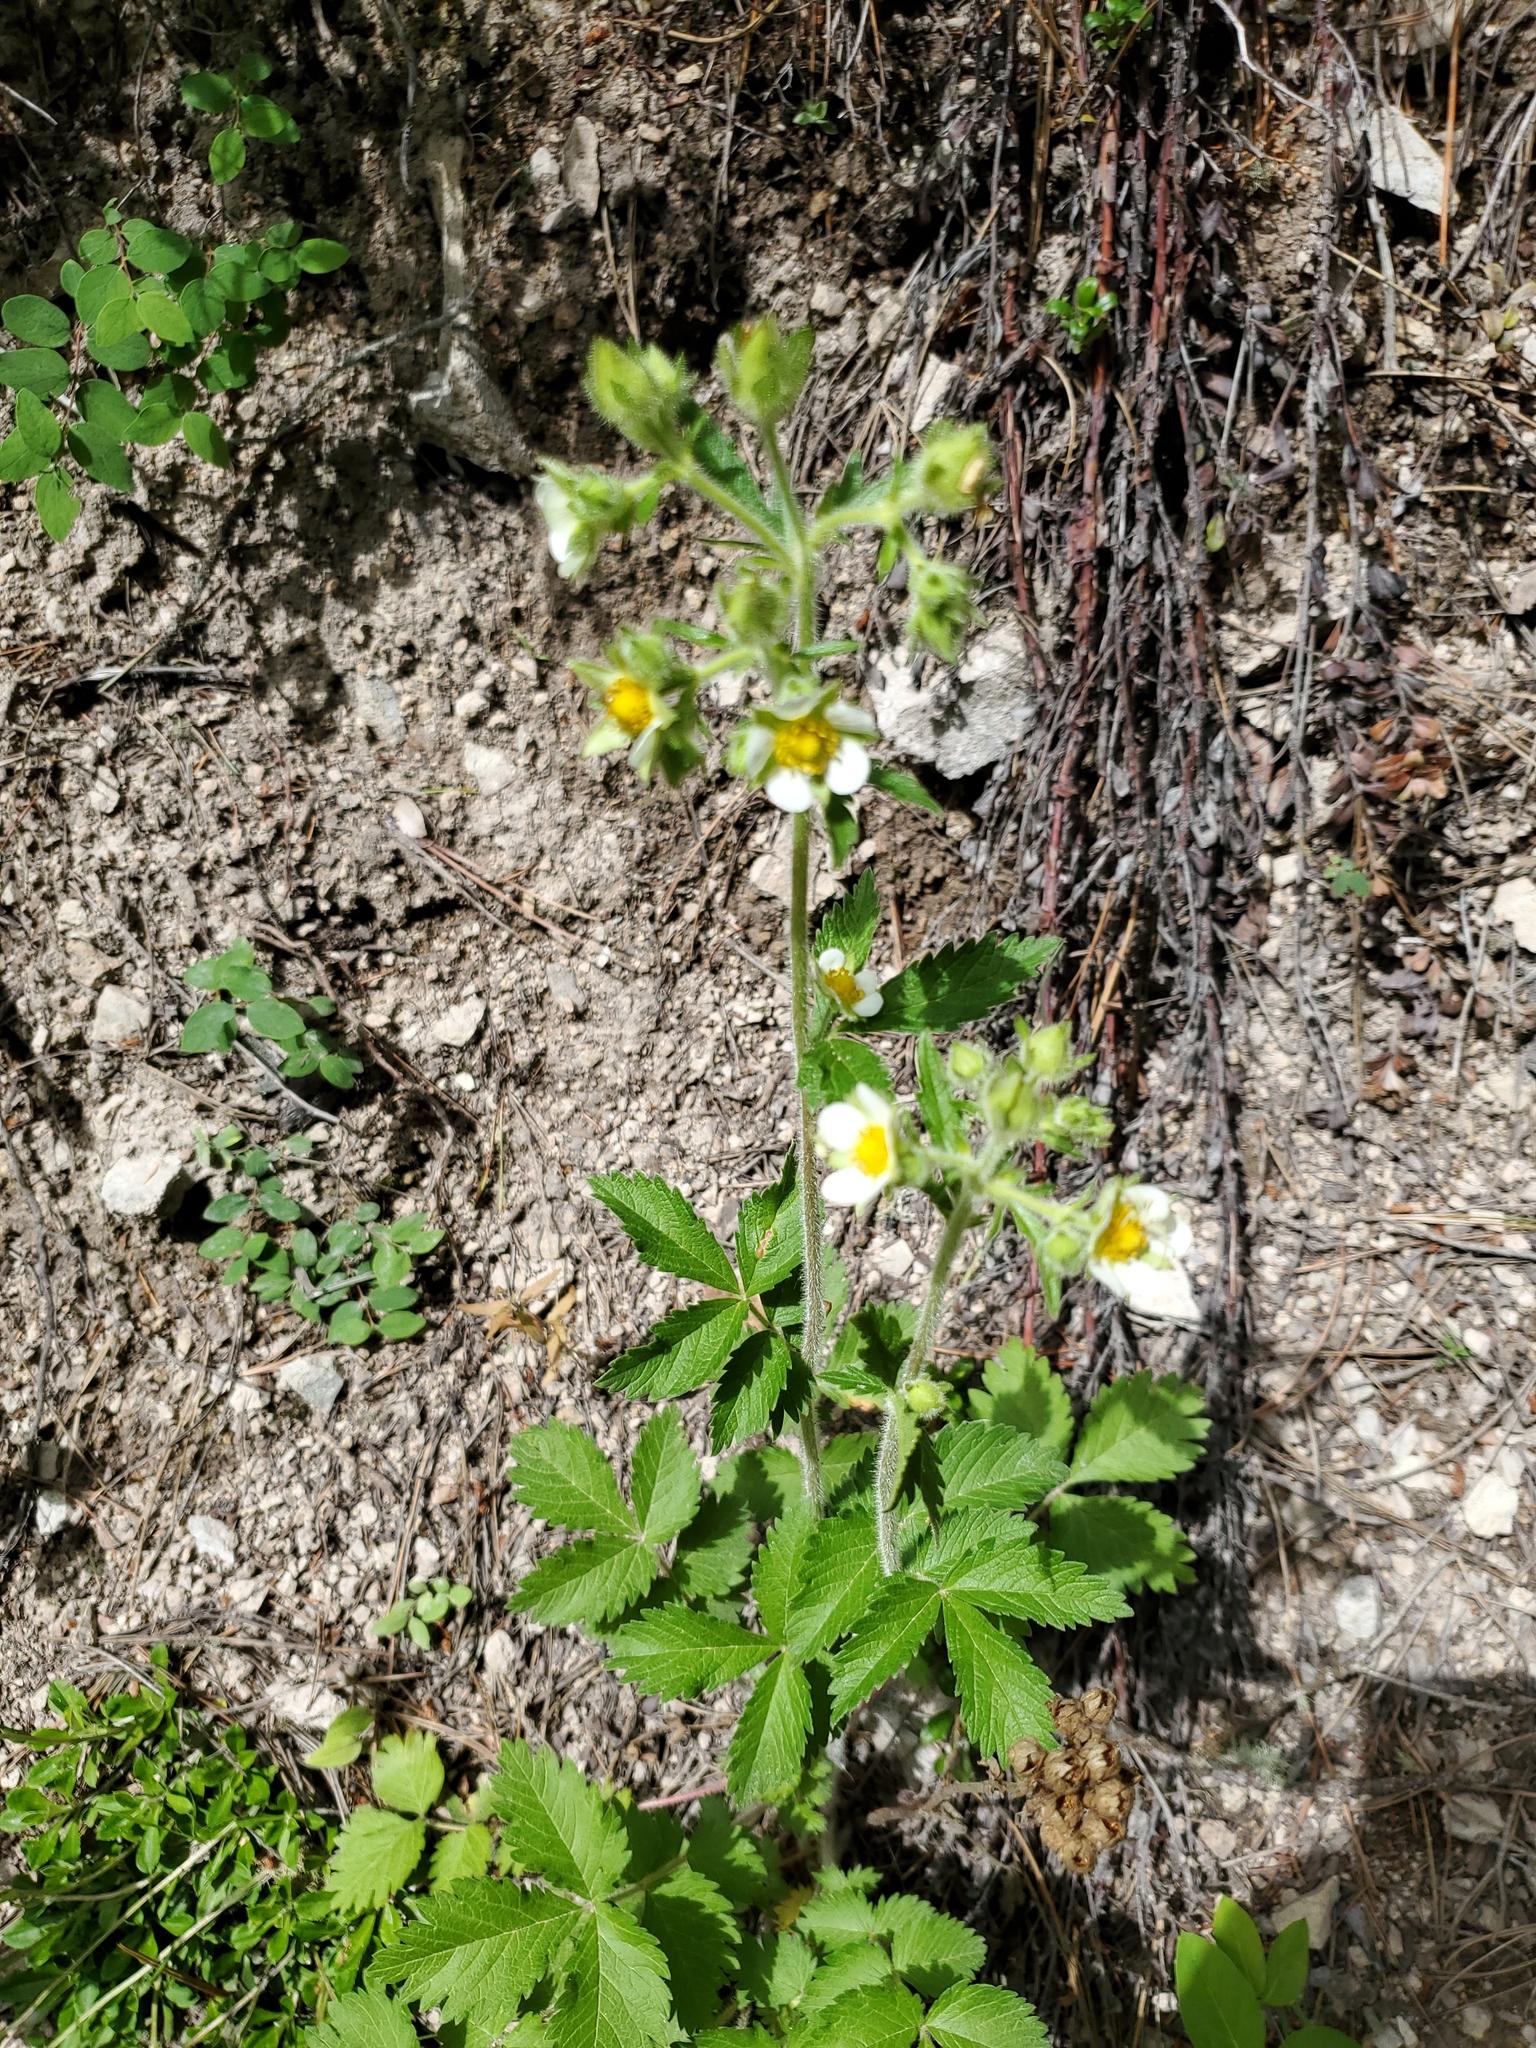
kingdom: Plantae
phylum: Tracheophyta
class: Magnoliopsida
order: Rosales
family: Rosaceae
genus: Drymocallis
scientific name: Drymocallis arguta
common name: Tall cinquefoil
